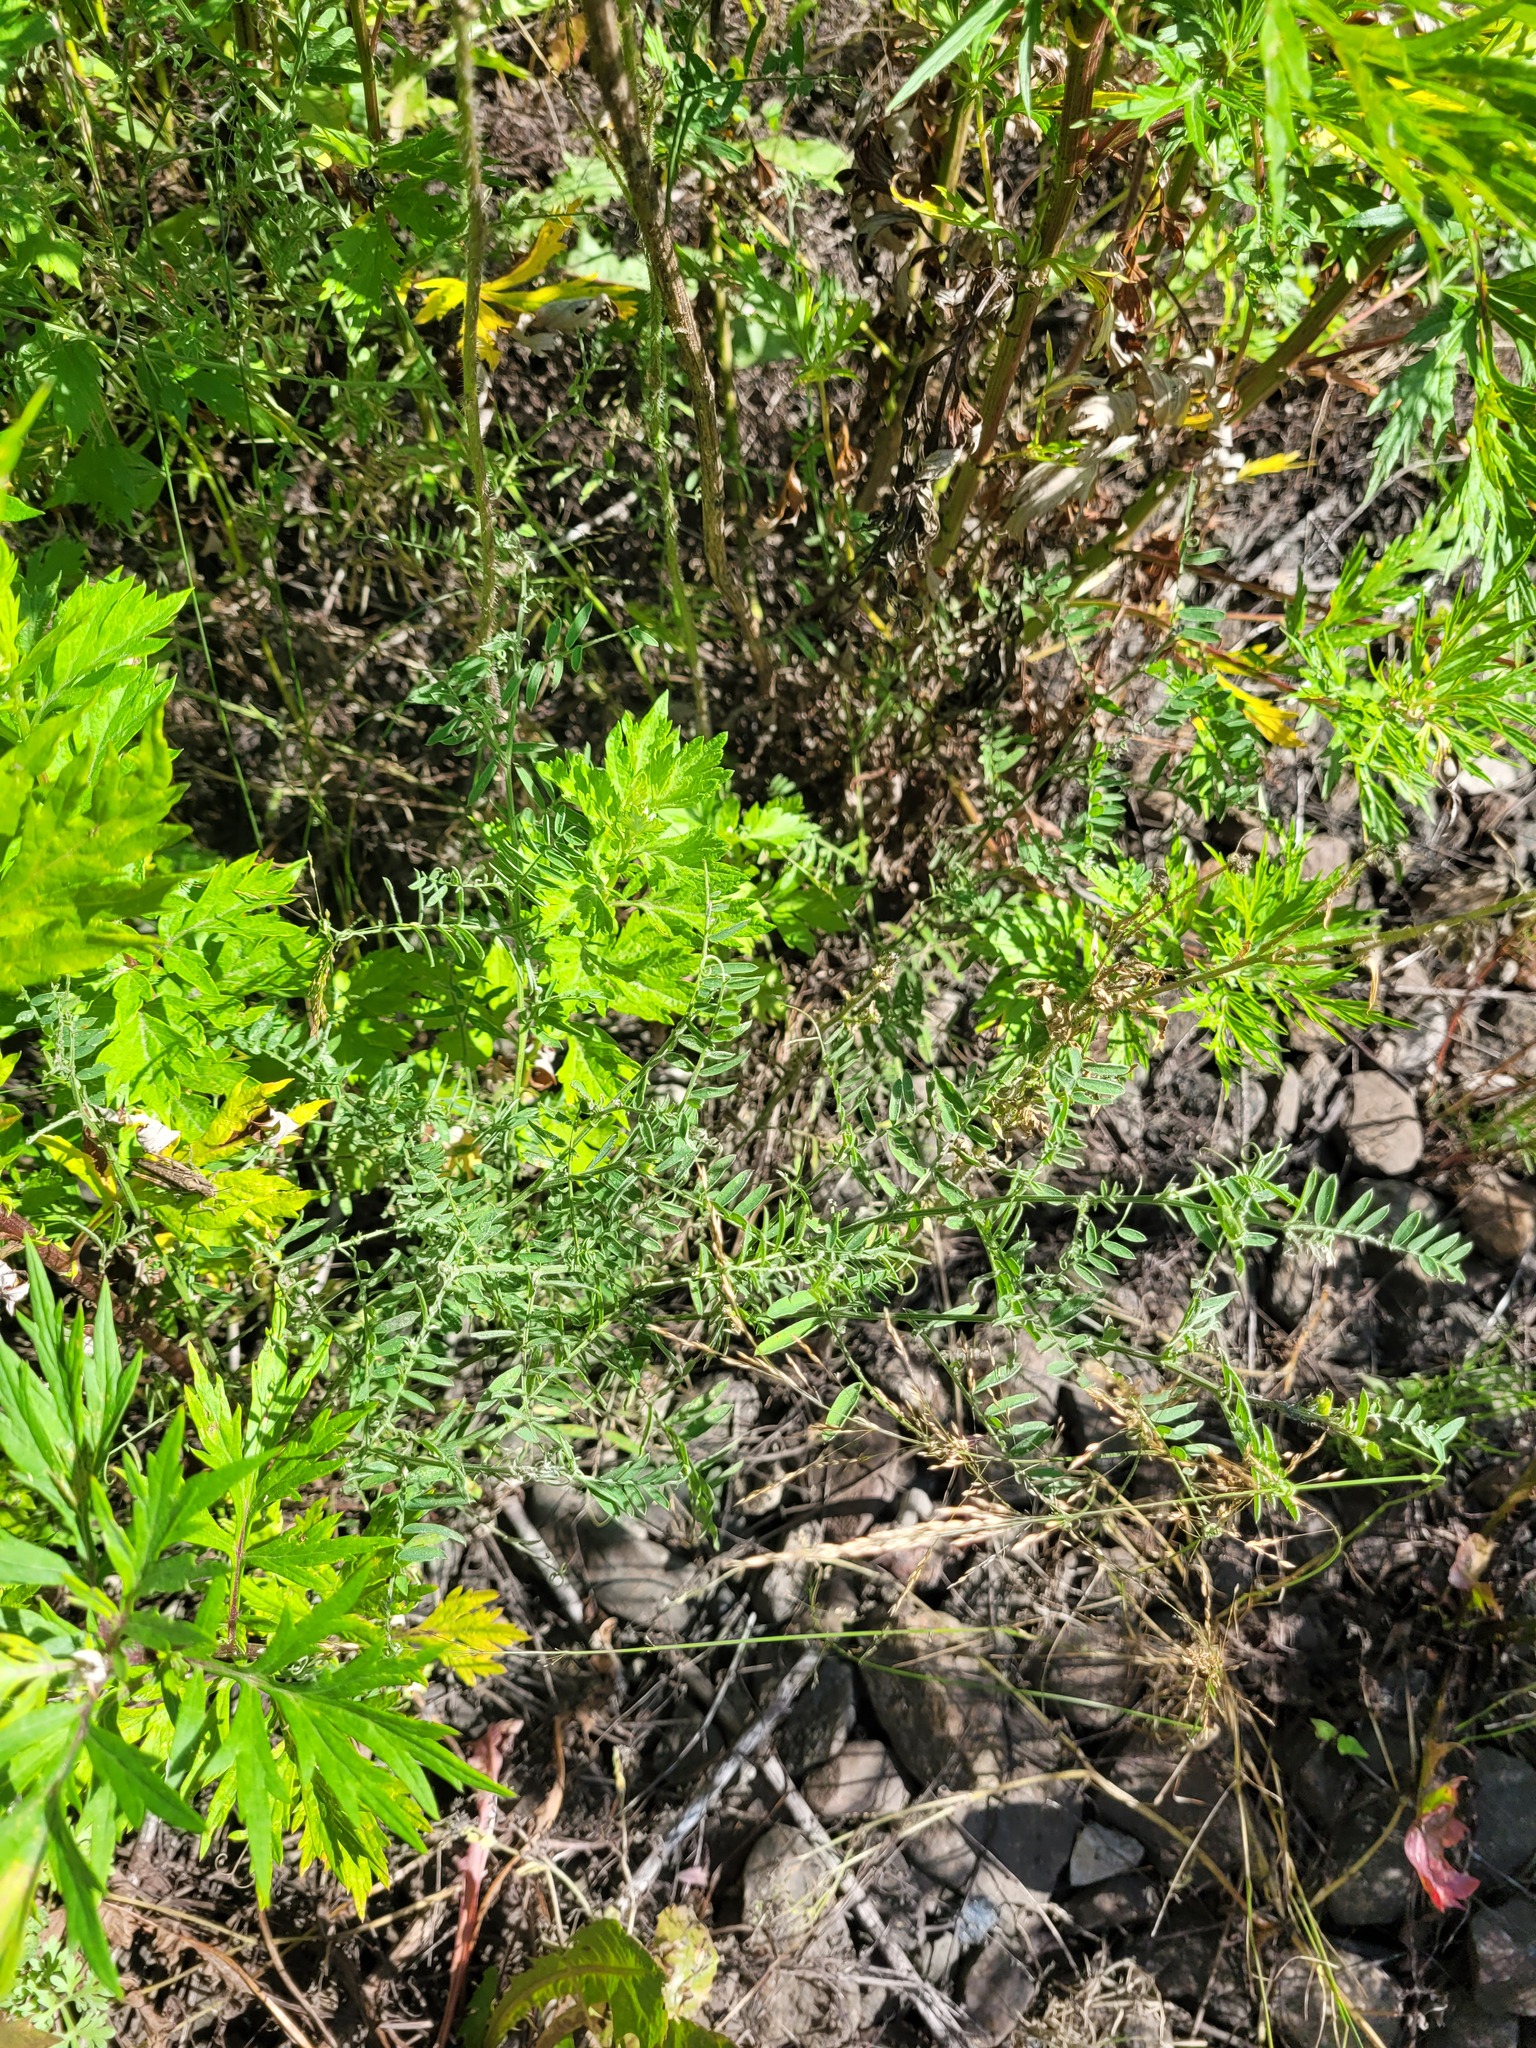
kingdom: Plantae
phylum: Tracheophyta
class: Magnoliopsida
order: Fabales
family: Fabaceae
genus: Vicia
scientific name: Vicia cracca
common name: Bird vetch
